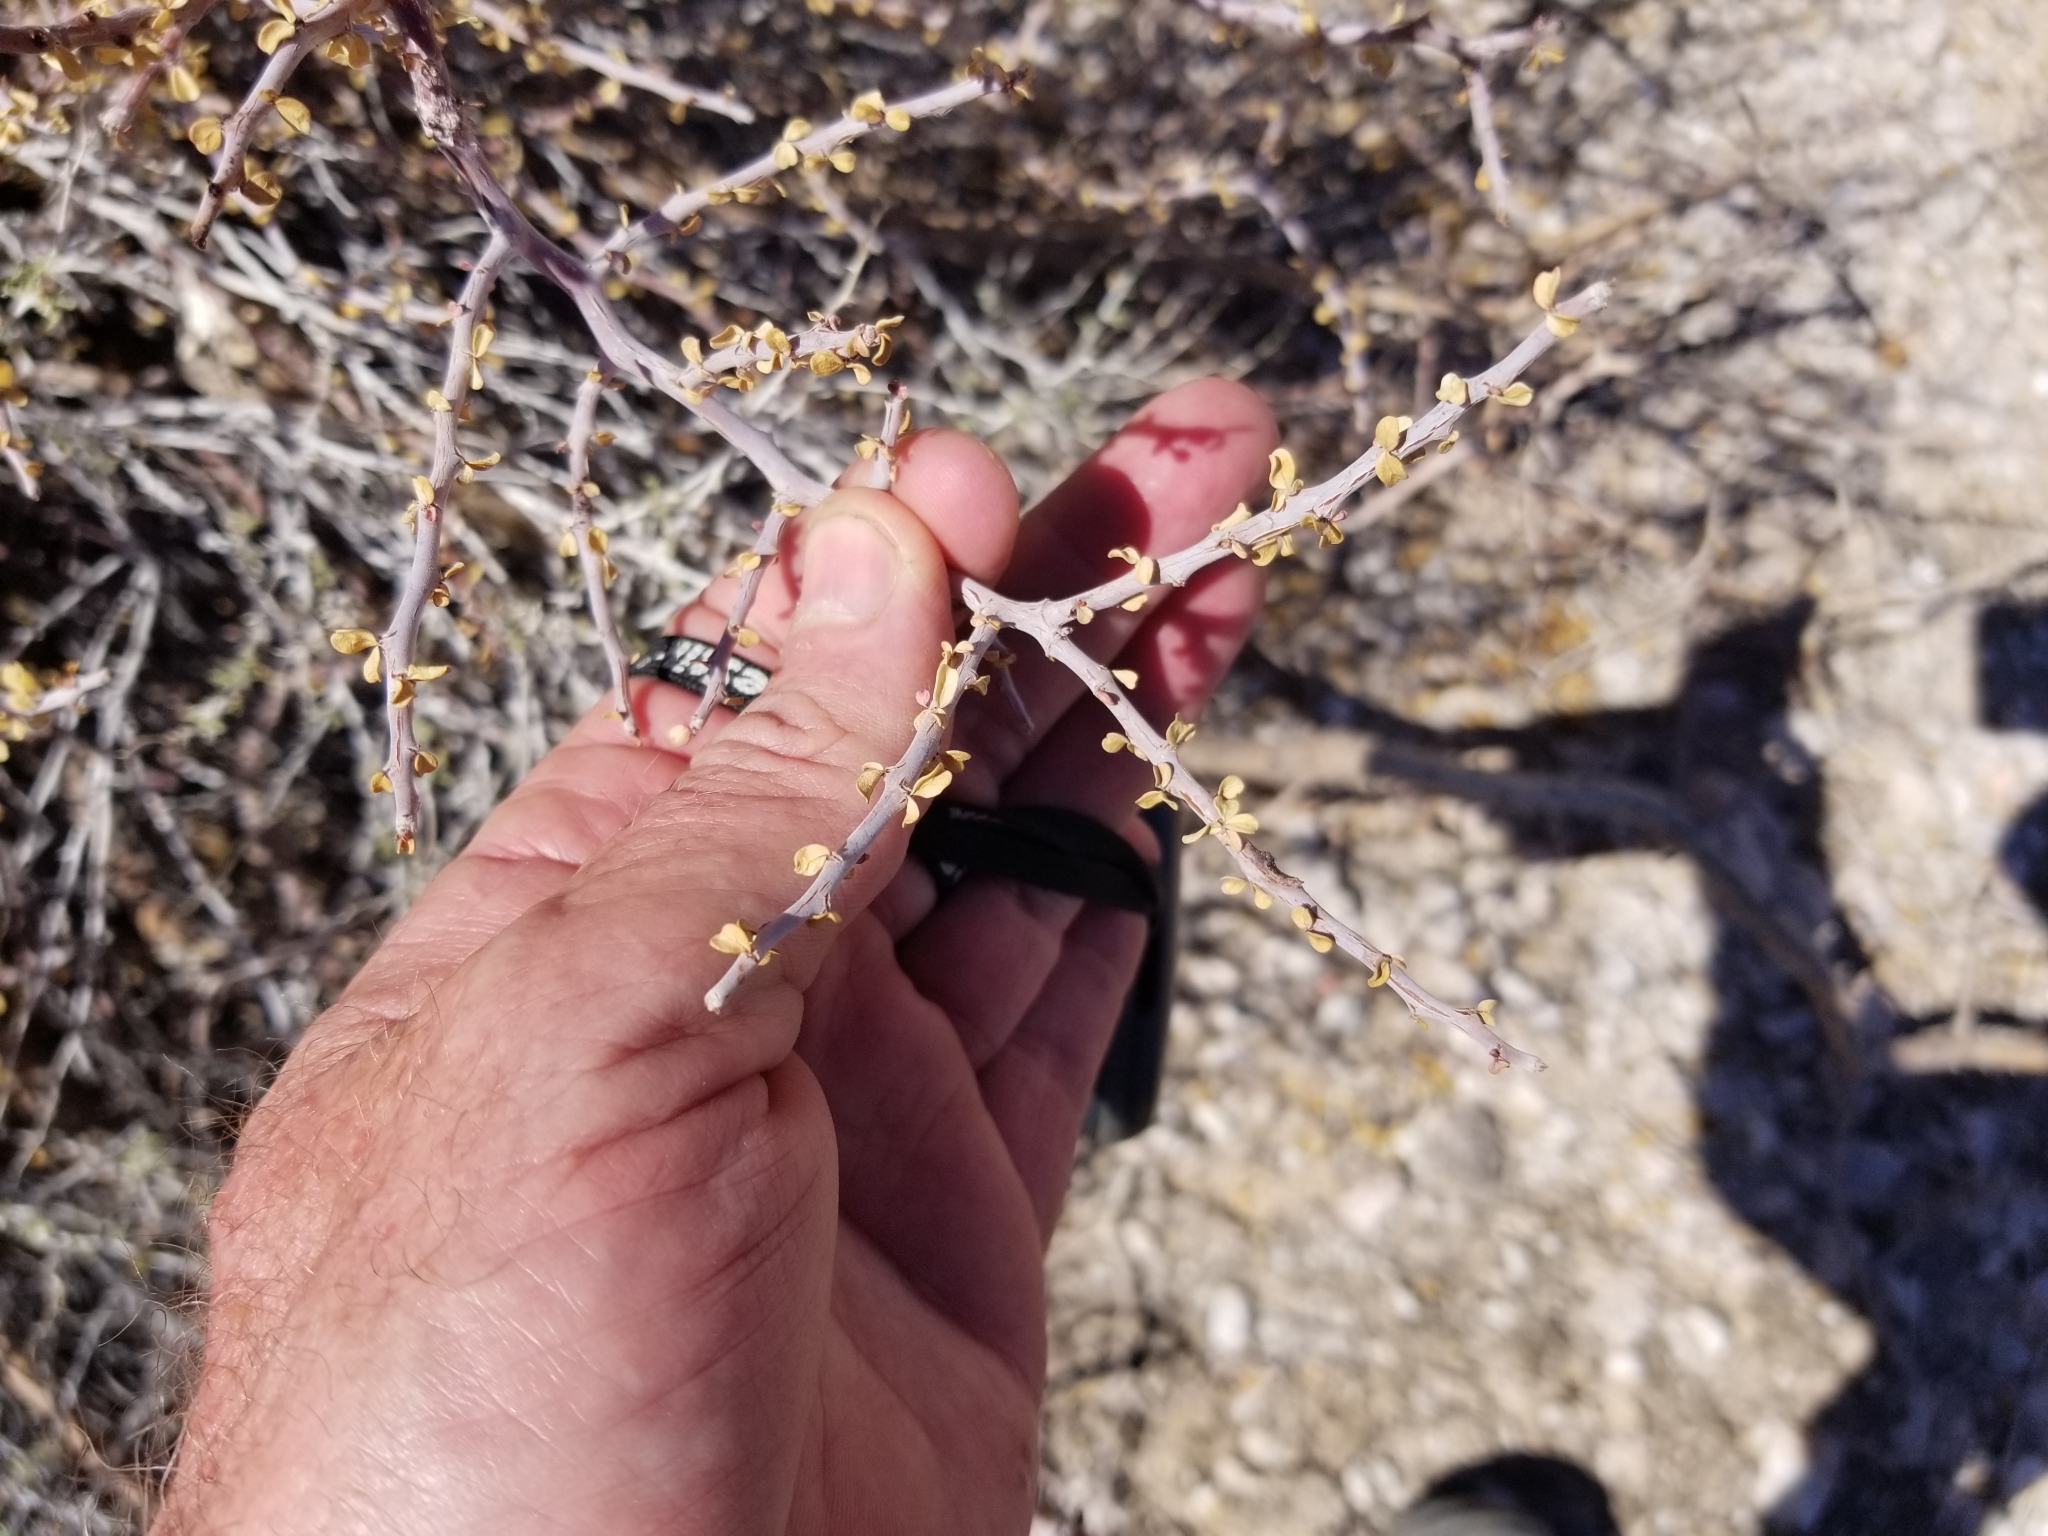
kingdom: Plantae
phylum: Tracheophyta
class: Magnoliopsida
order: Malpighiales
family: Euphorbiaceae
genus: Jatropha
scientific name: Jatropha cuneata
